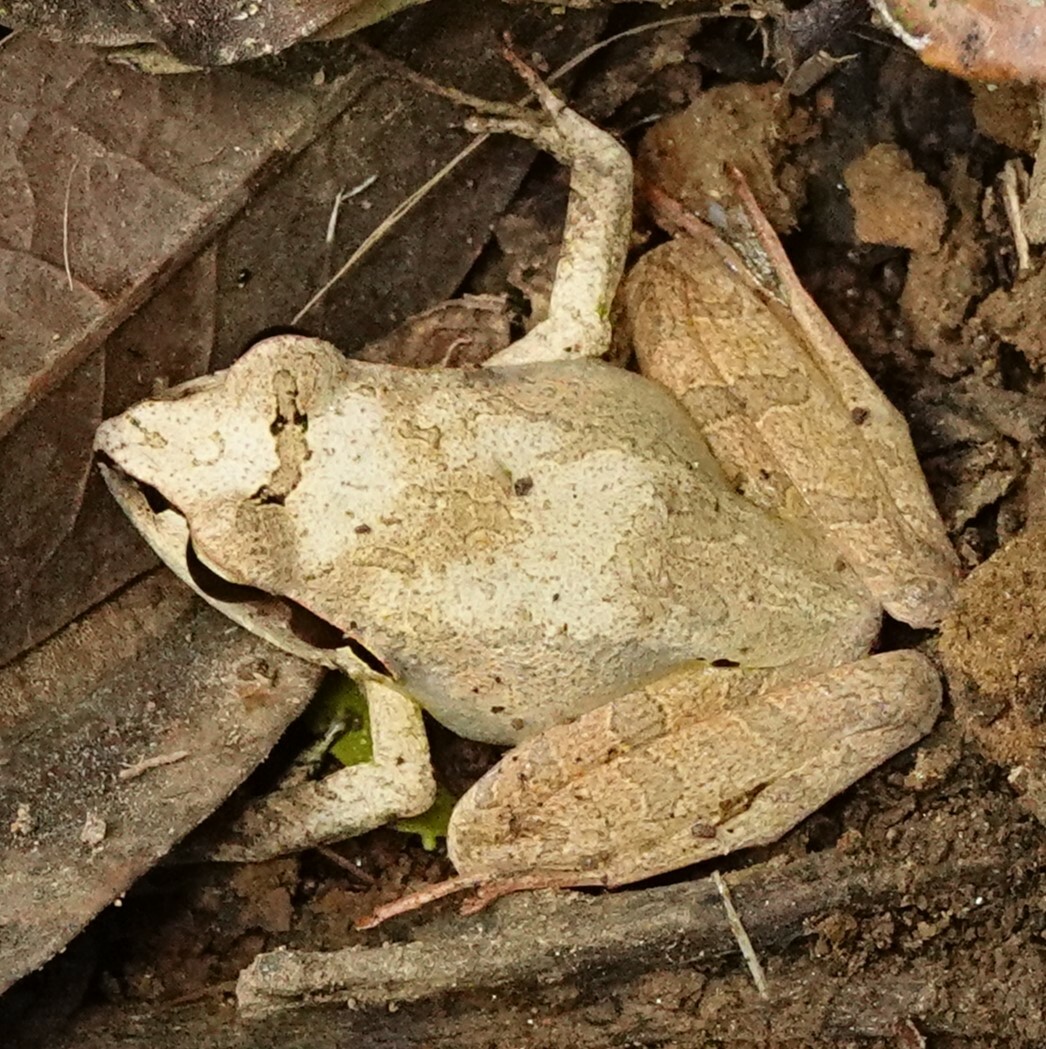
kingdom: Animalia
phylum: Chordata
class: Amphibia
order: Anura
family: Mantellidae
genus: Aglyptodactylus
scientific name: Aglyptodactylus madagascariensis
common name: Madagascar jumping frog
